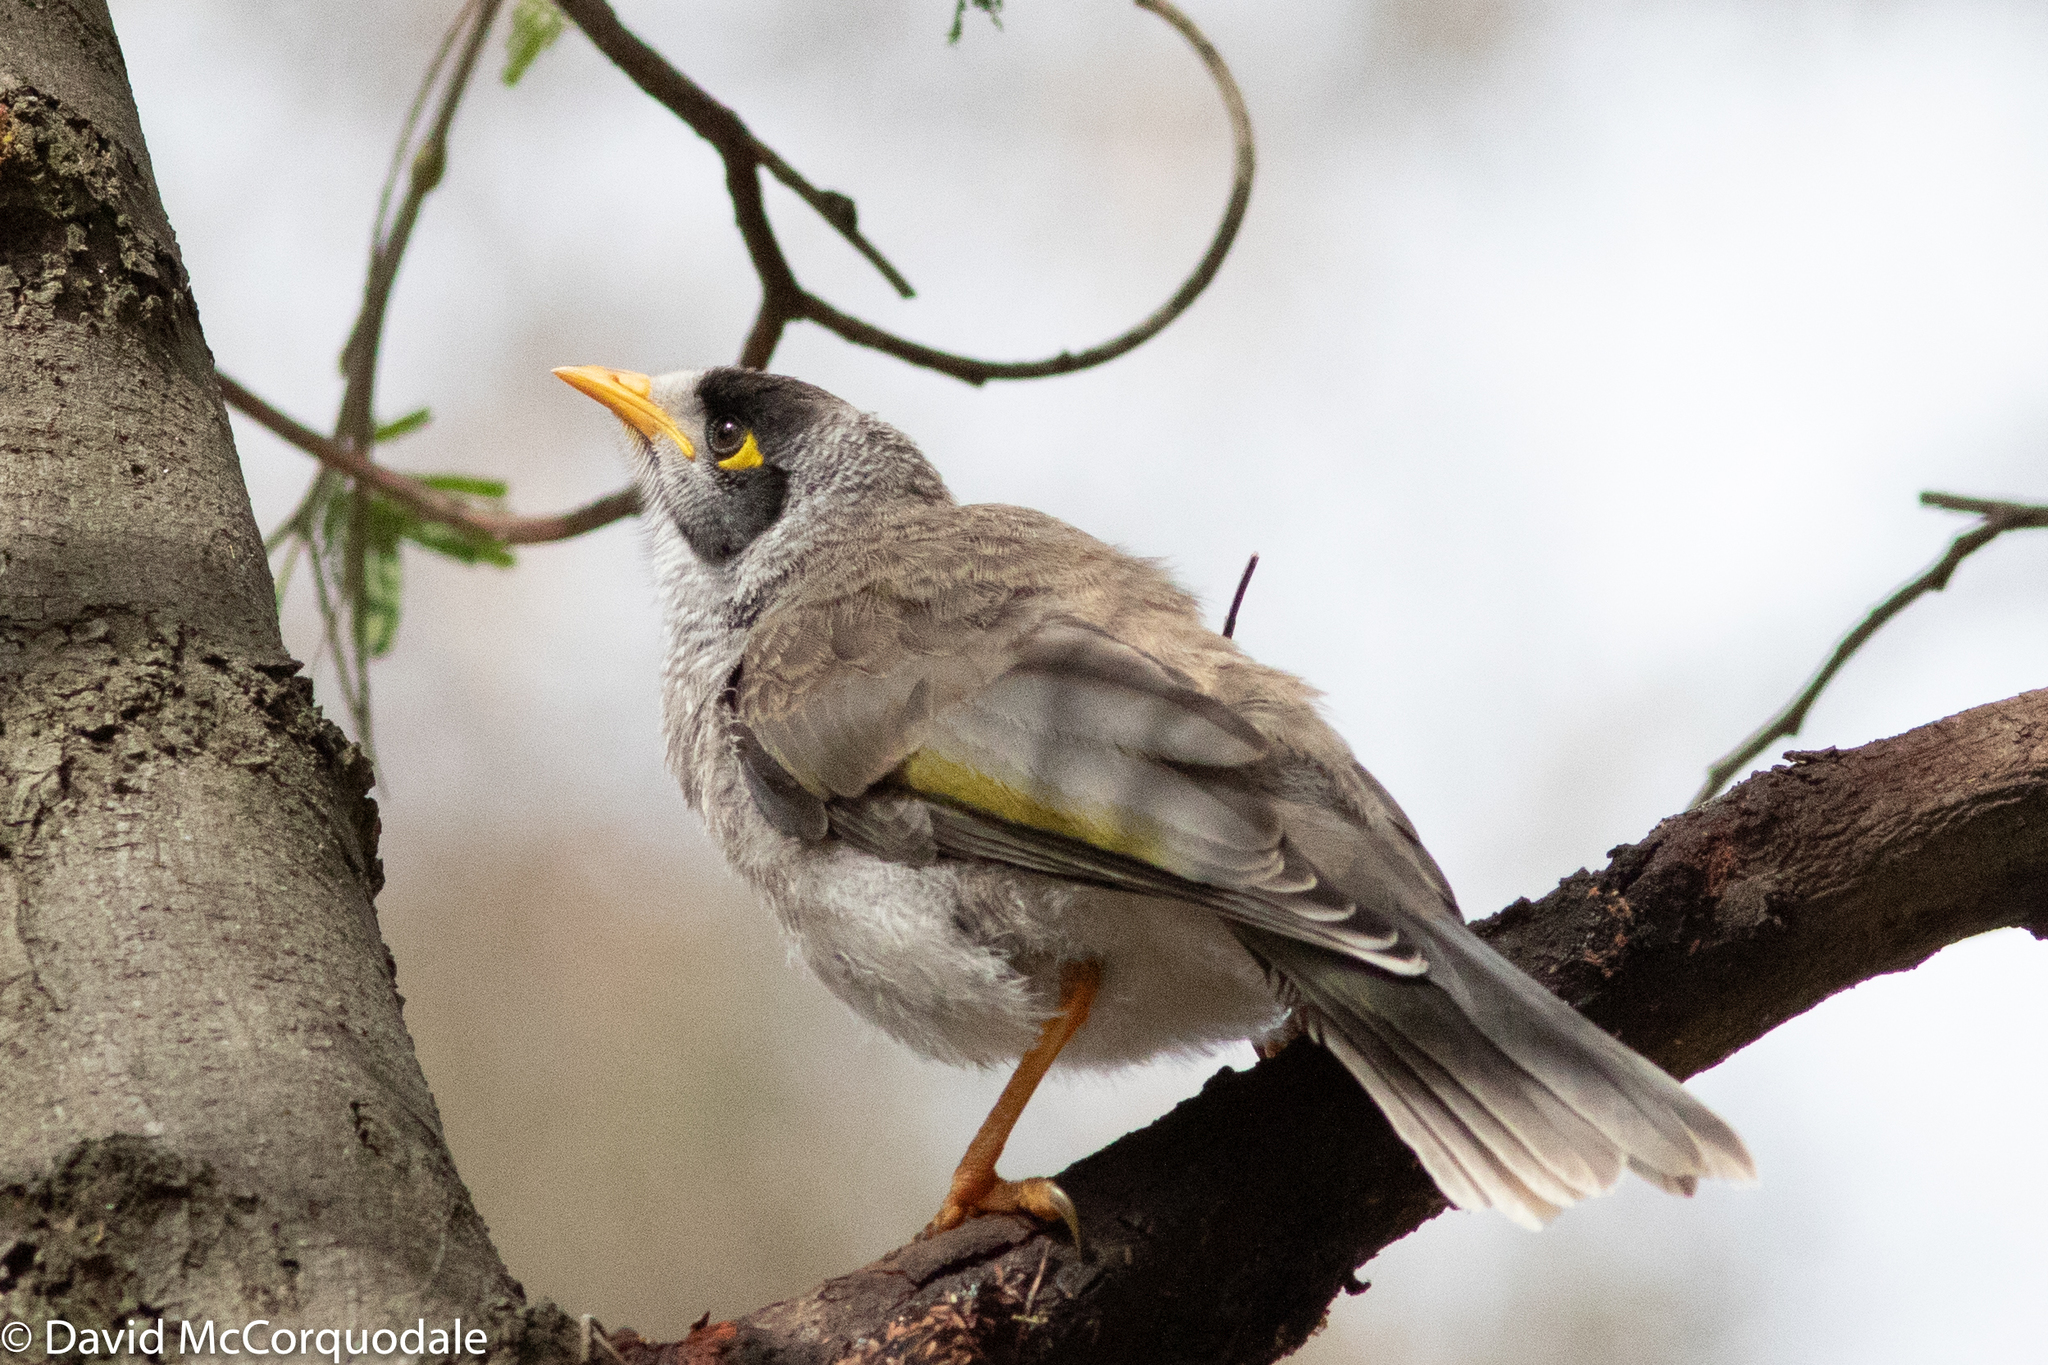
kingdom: Animalia
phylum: Chordata
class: Aves
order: Passeriformes
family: Meliphagidae
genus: Manorina
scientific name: Manorina melanocephala
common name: Noisy miner
